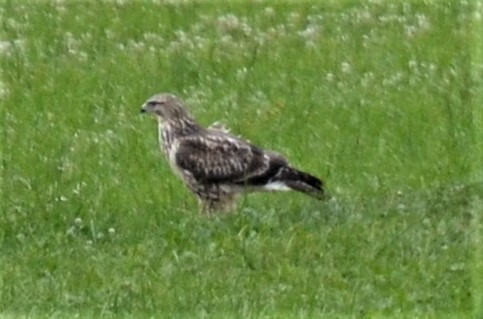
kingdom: Animalia
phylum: Chordata
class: Aves
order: Accipitriformes
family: Accipitridae
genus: Buteo
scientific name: Buteo buteo
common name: Common buzzard
